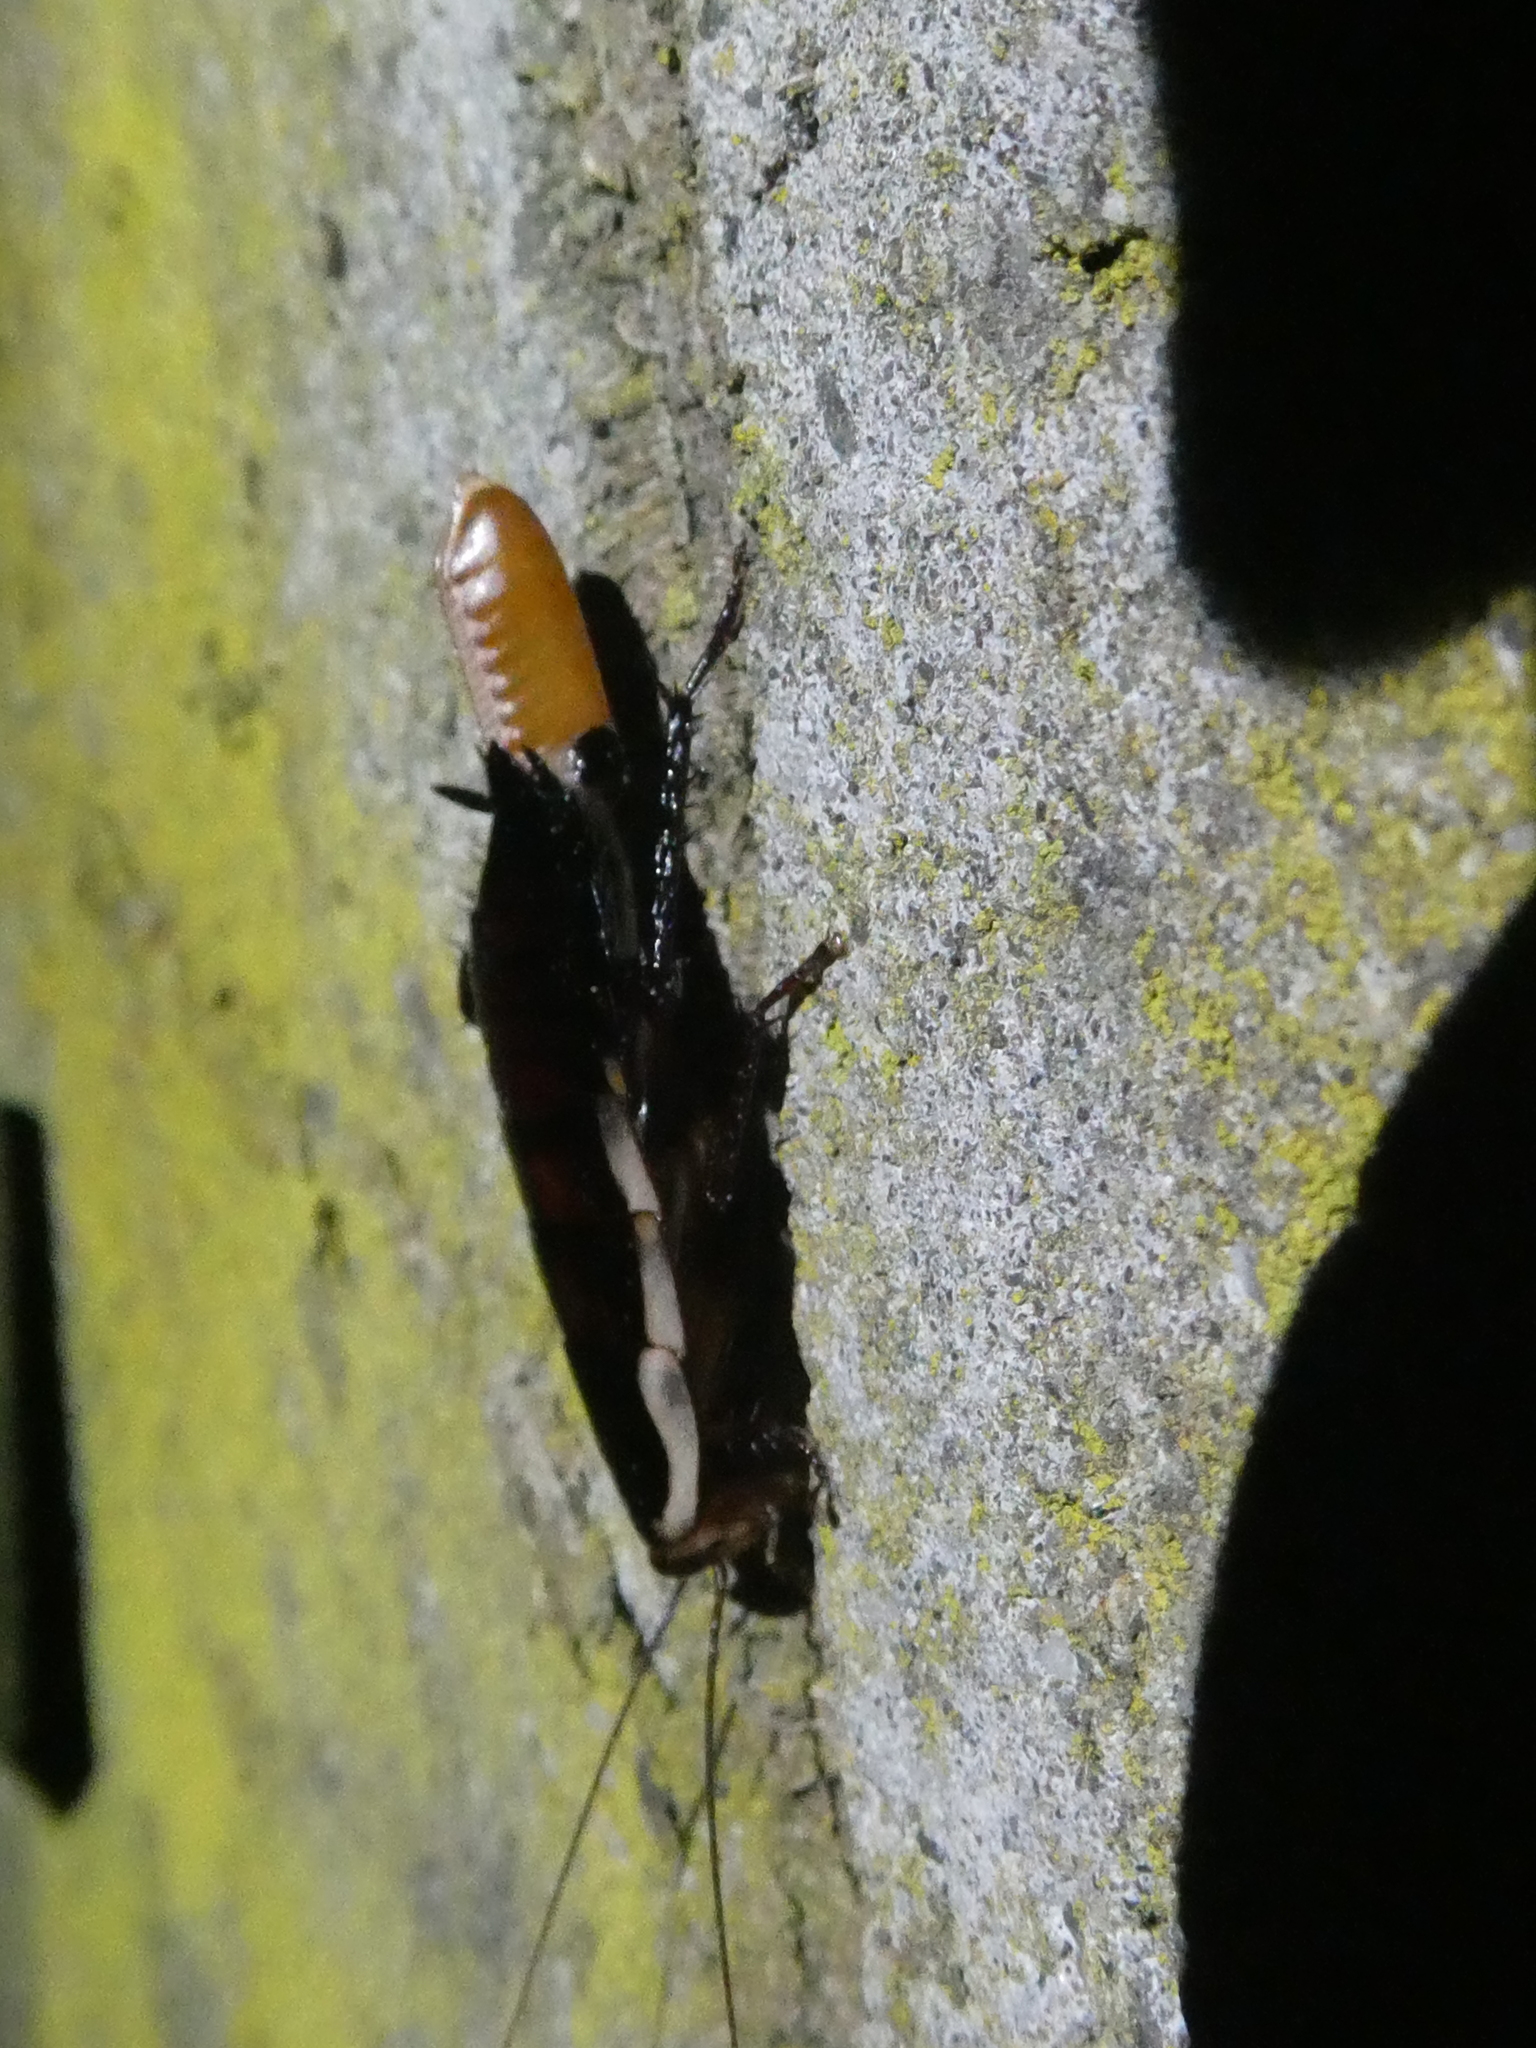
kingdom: Animalia
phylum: Arthropoda
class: Insecta
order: Blattodea
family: Blattidae
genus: Drymaplaneta
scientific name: Drymaplaneta semivitta
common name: Gisborne cockroach
